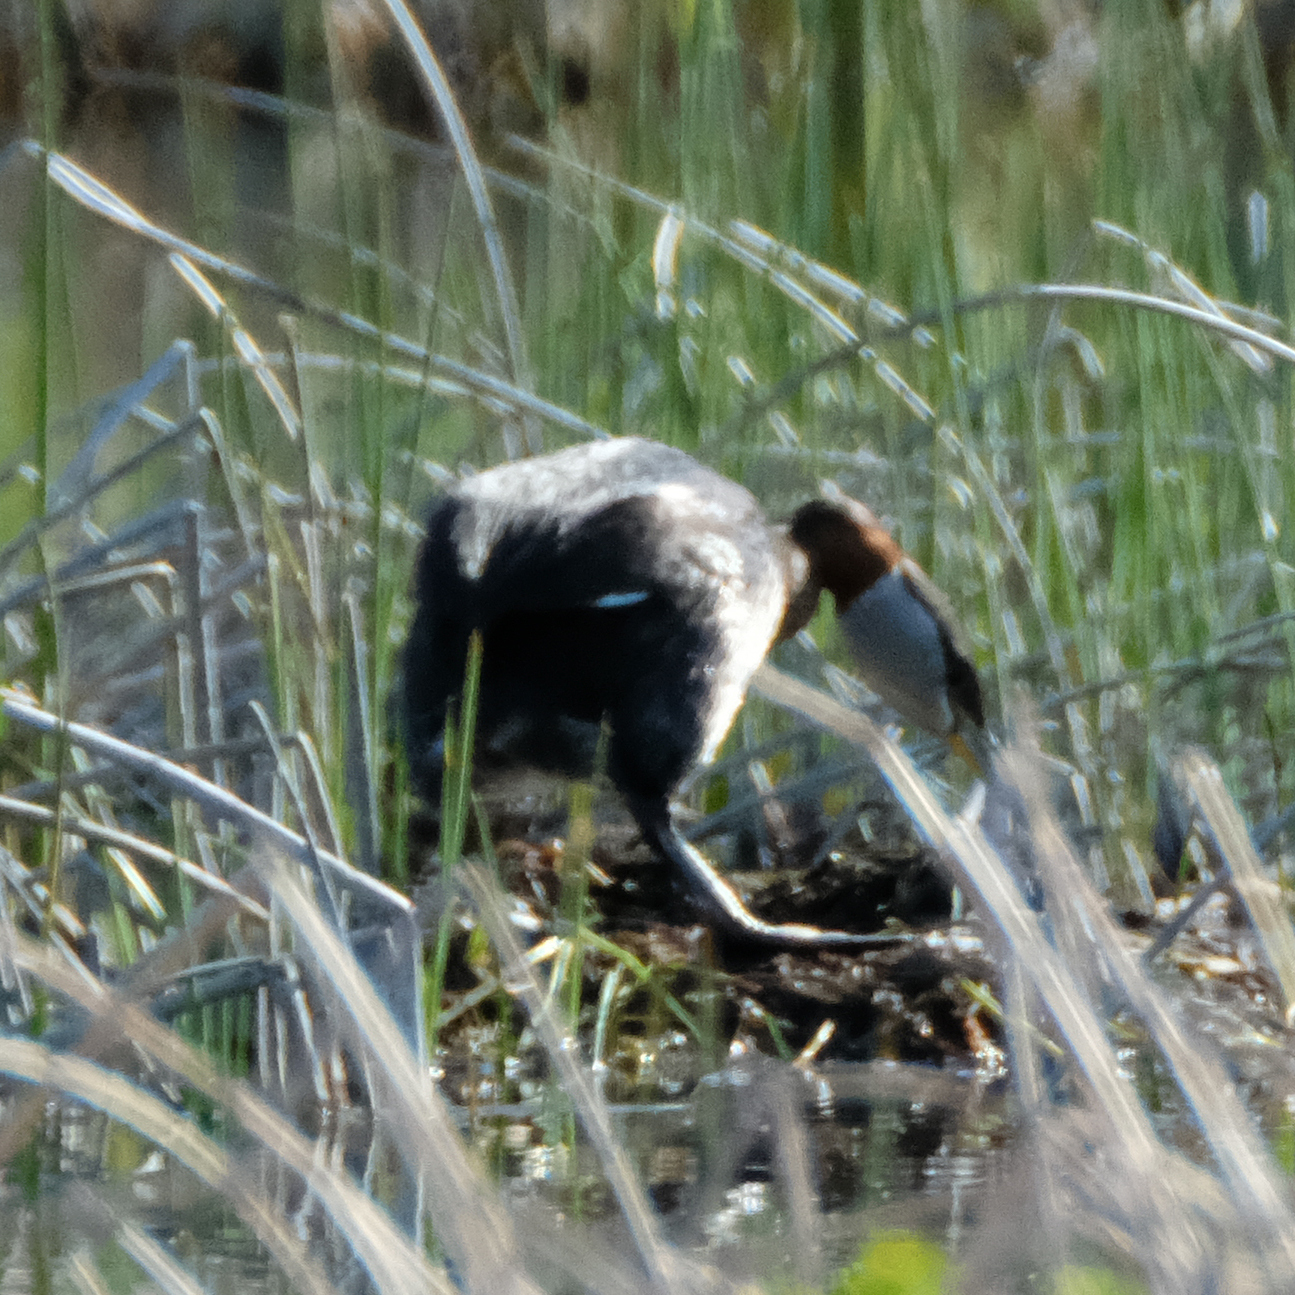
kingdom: Animalia
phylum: Chordata
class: Aves
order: Podicipediformes
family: Podicipedidae
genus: Podiceps
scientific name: Podiceps grisegena
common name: Red-necked grebe
